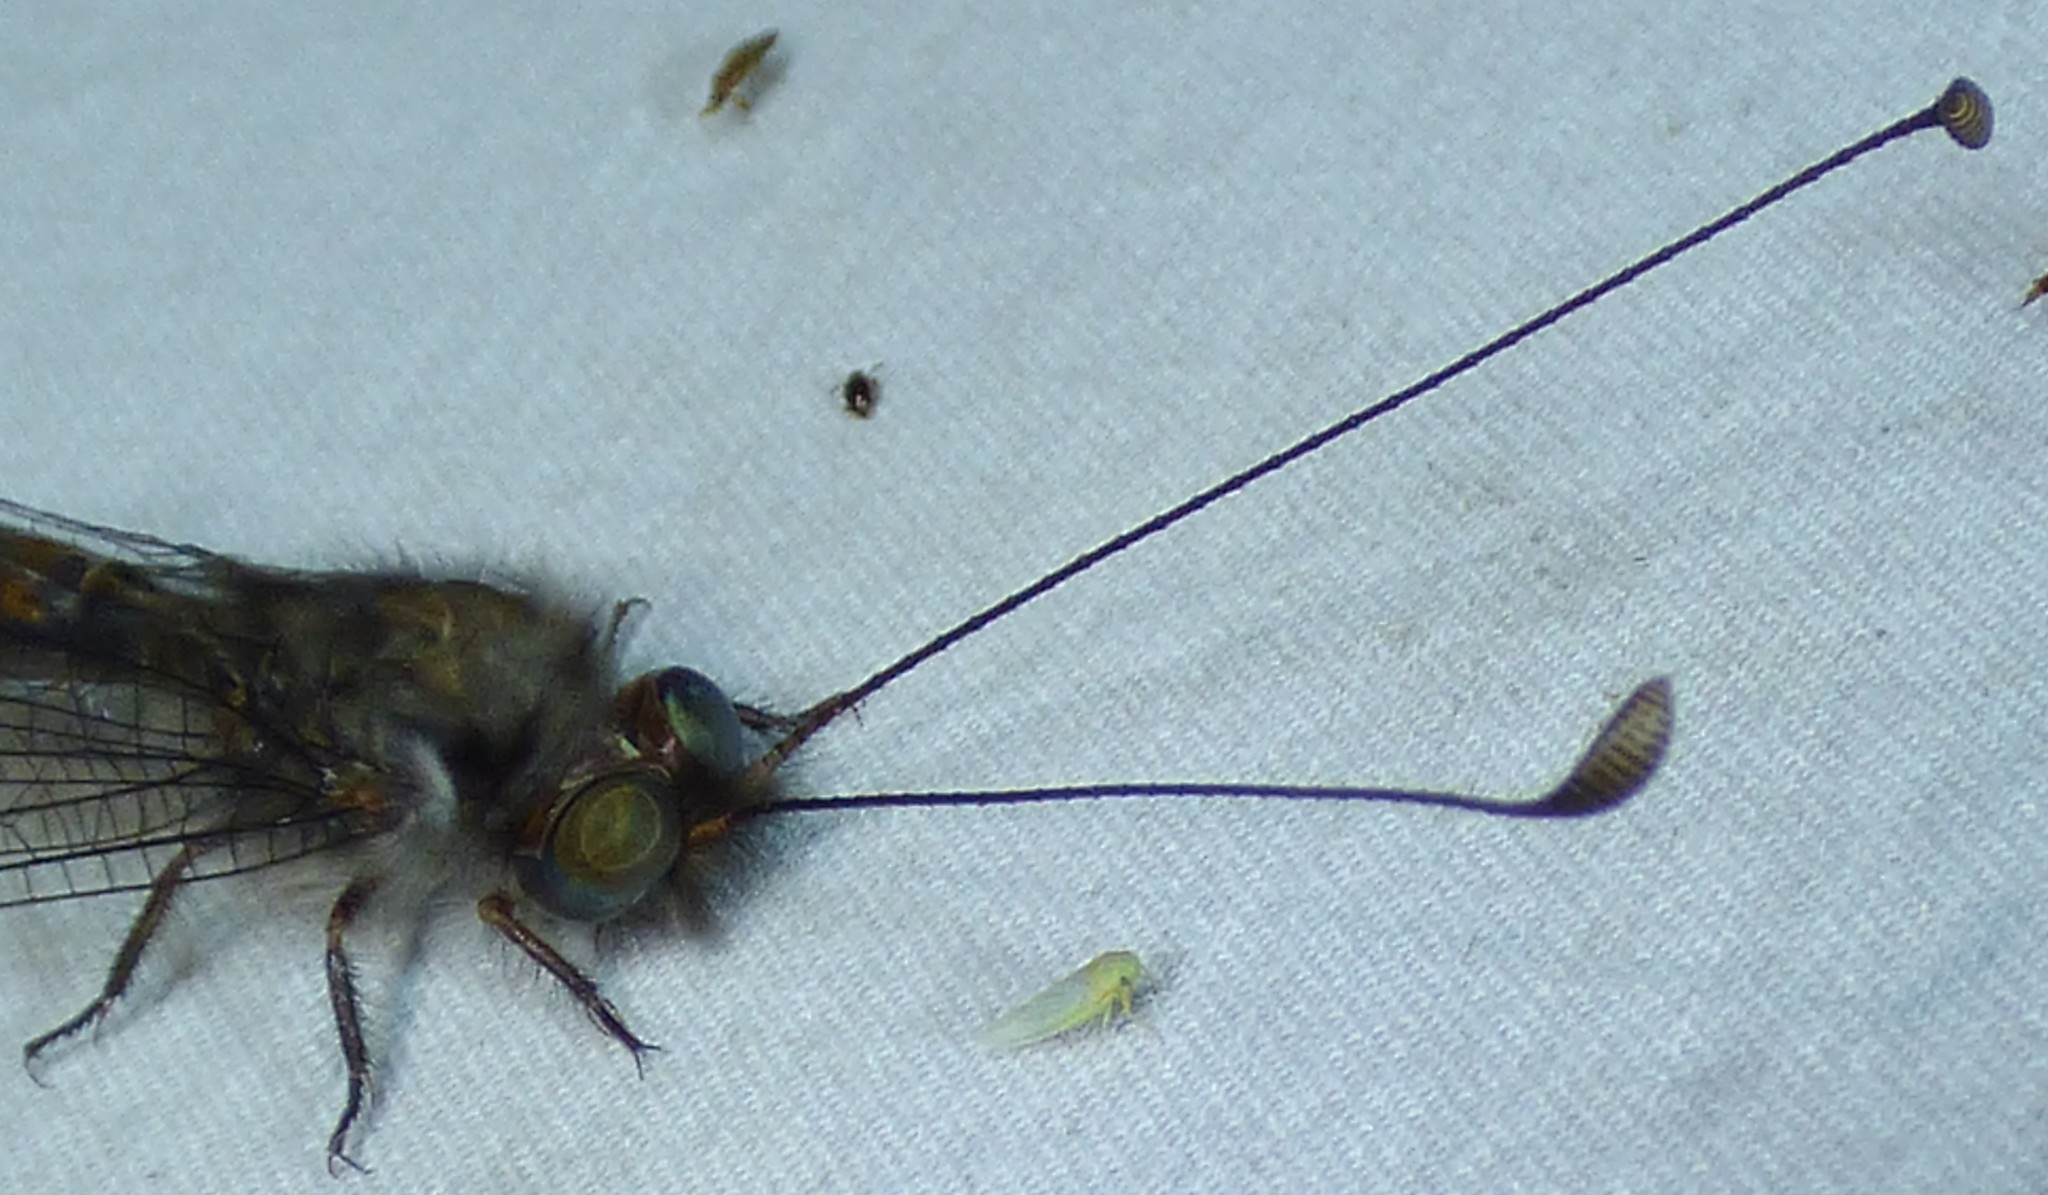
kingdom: Animalia
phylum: Arthropoda
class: Insecta
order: Neuroptera
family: Ascalaphidae
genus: Ululodes
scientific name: Ululodes quadripunctatus
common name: Four-spotted owlfly
